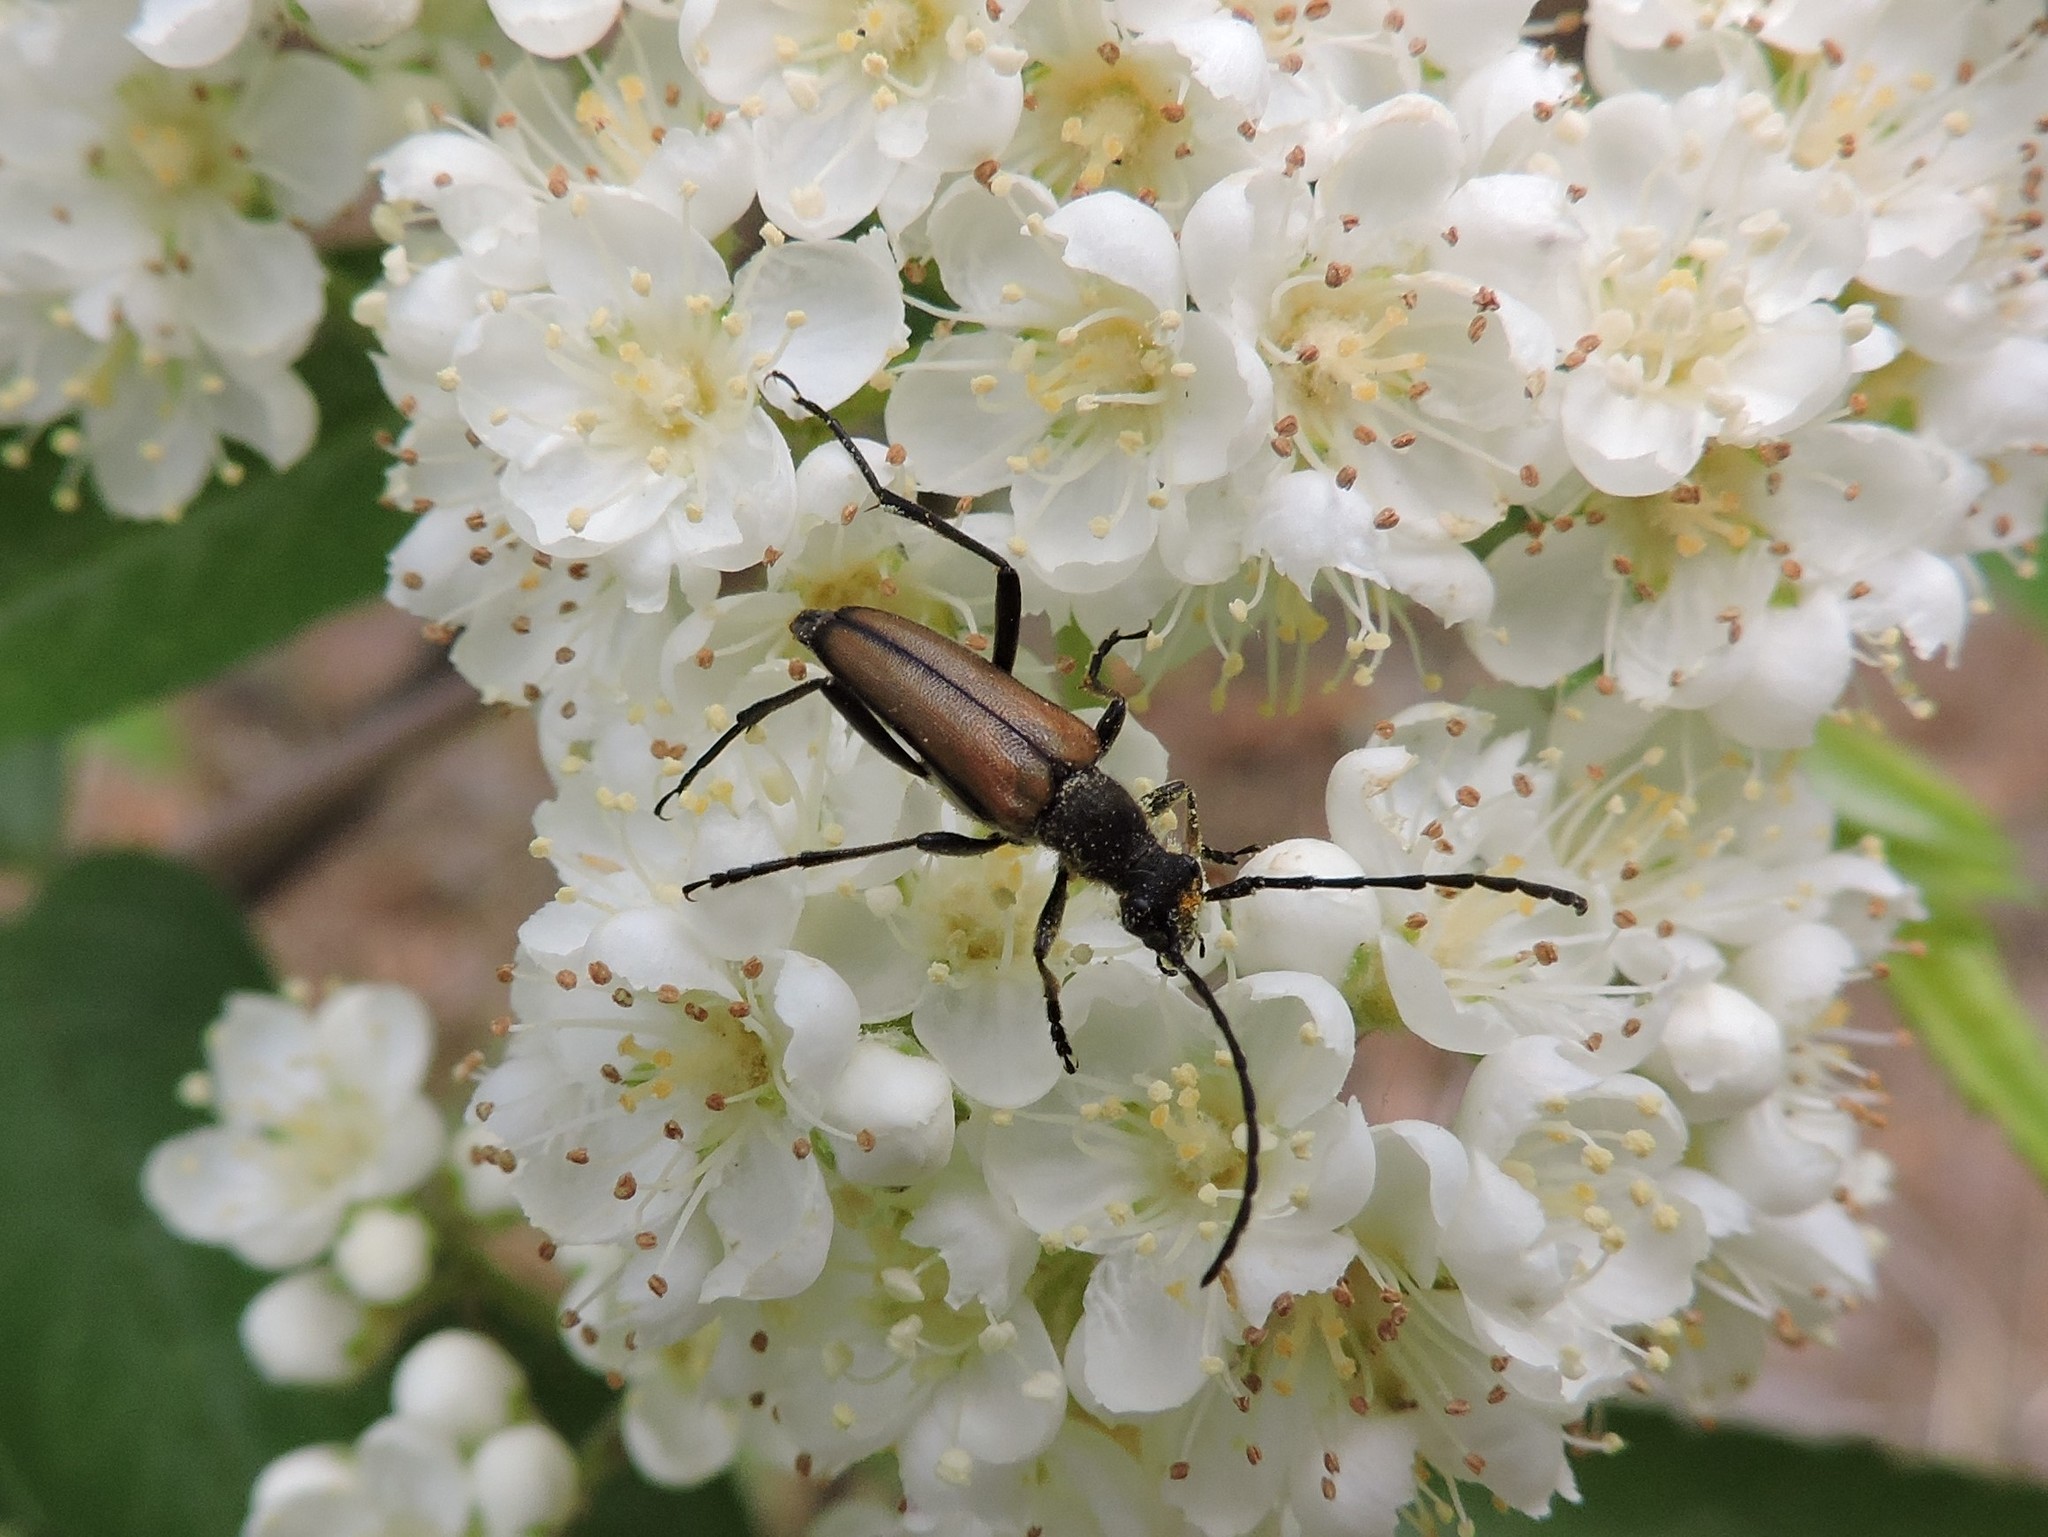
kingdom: Animalia
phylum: Arthropoda
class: Insecta
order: Coleoptera
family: Cerambycidae
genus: Anastrangalia
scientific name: Anastrangalia reyi
